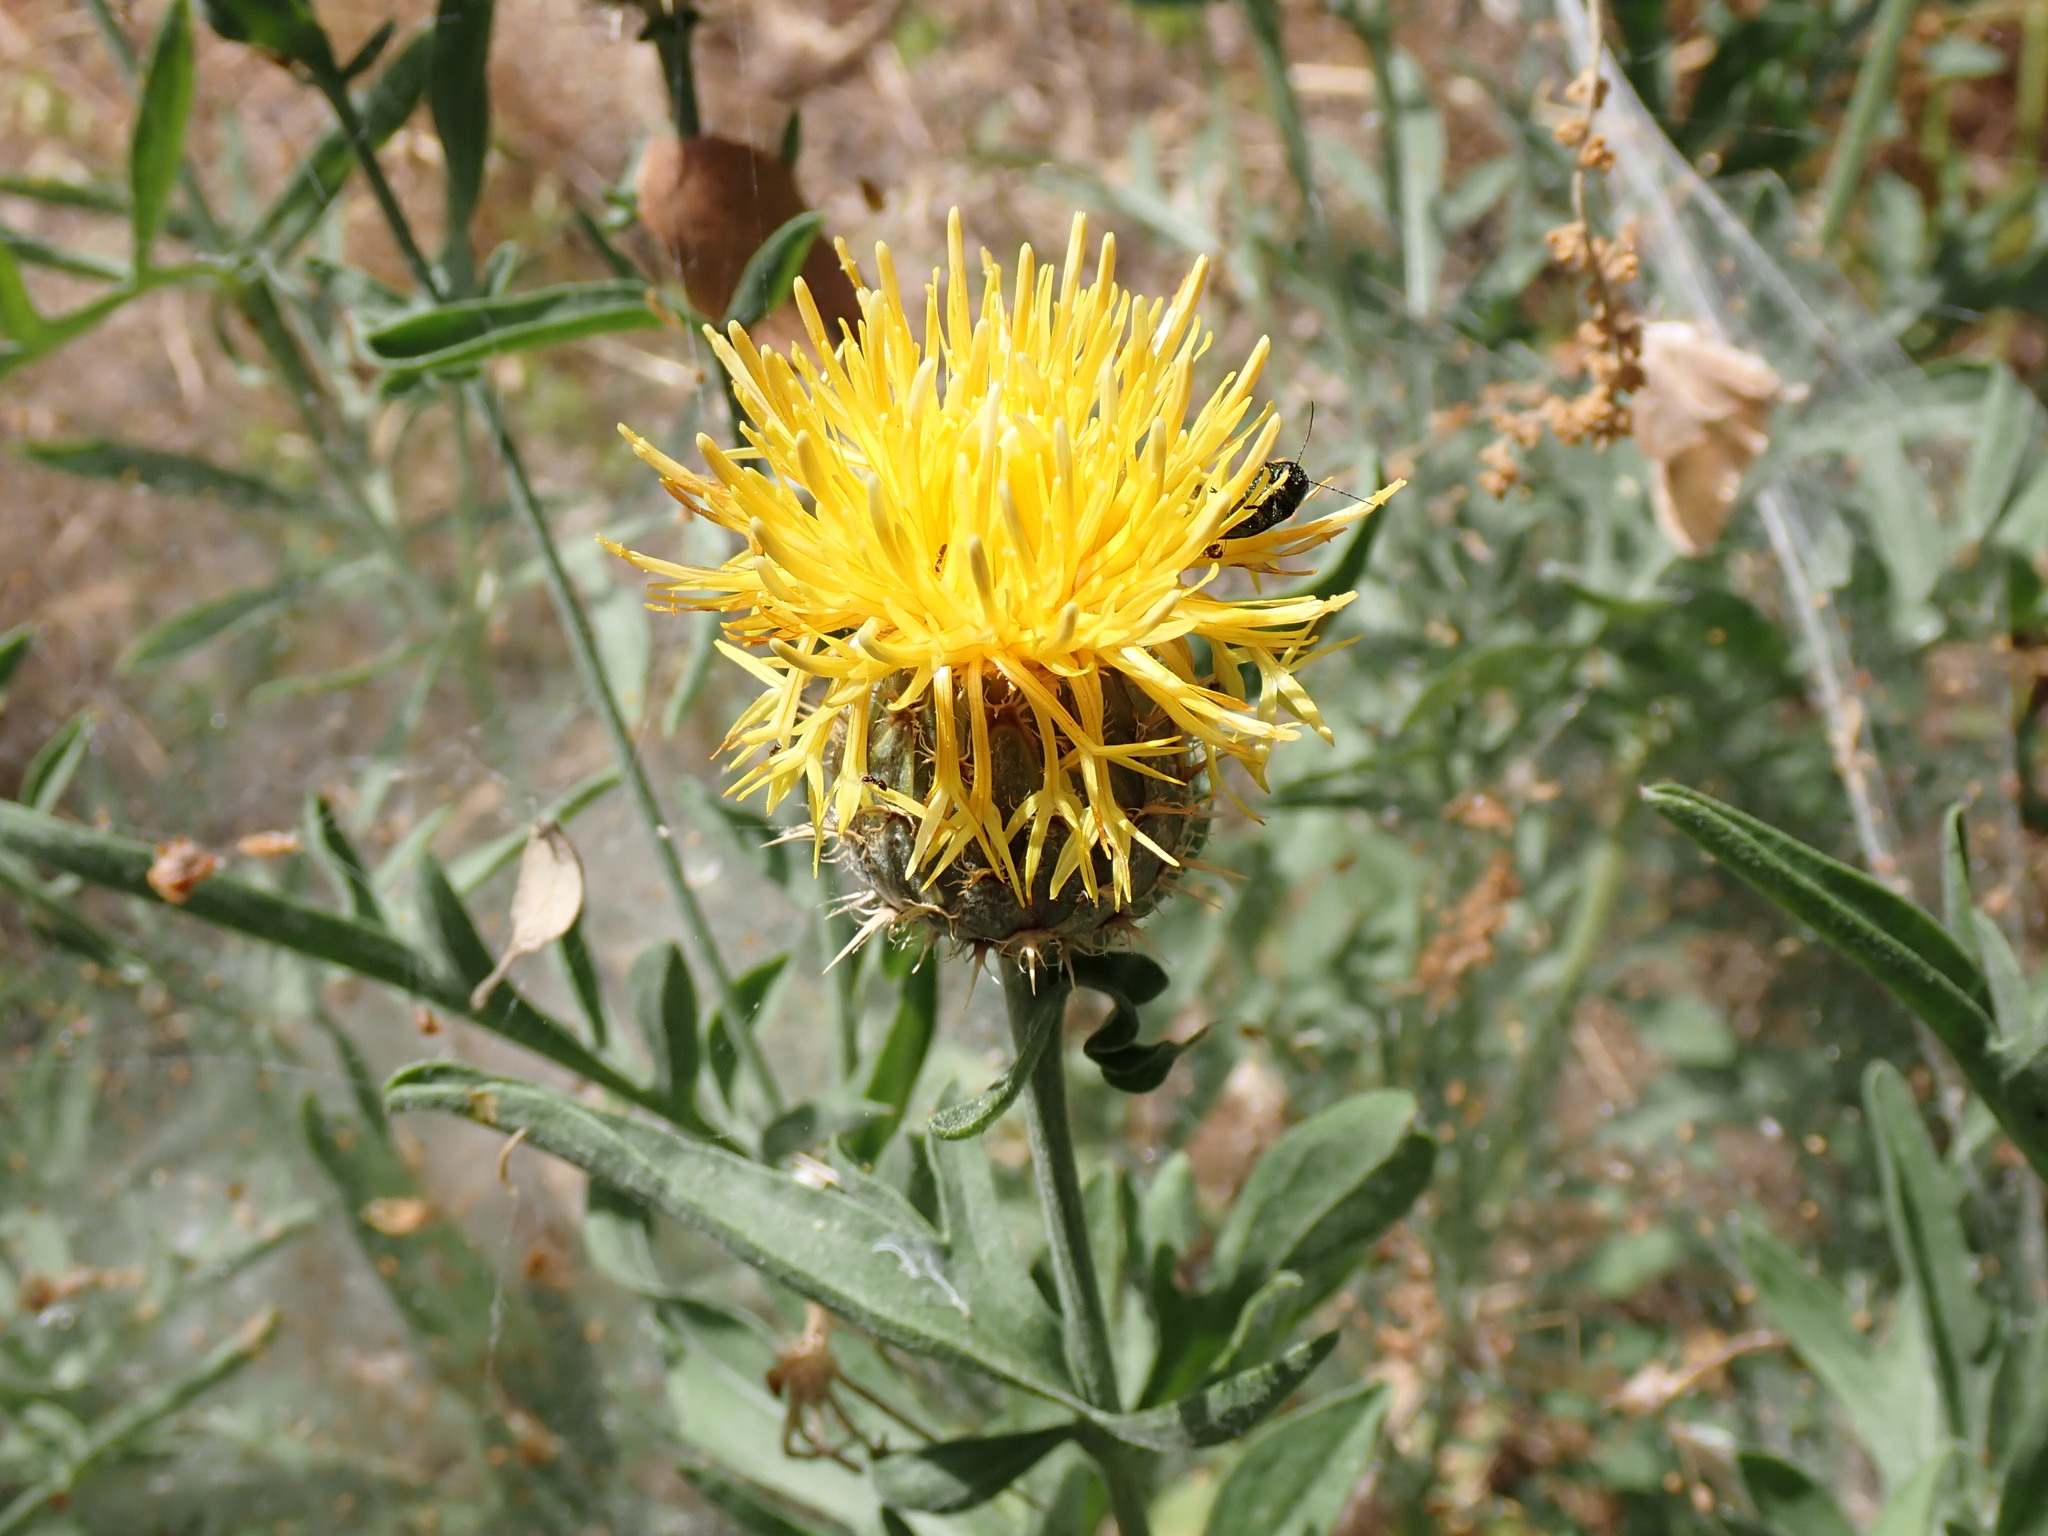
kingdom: Plantae
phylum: Tracheophyta
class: Magnoliopsida
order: Asterales
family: Asteraceae
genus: Centaurea
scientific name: Centaurea collina
